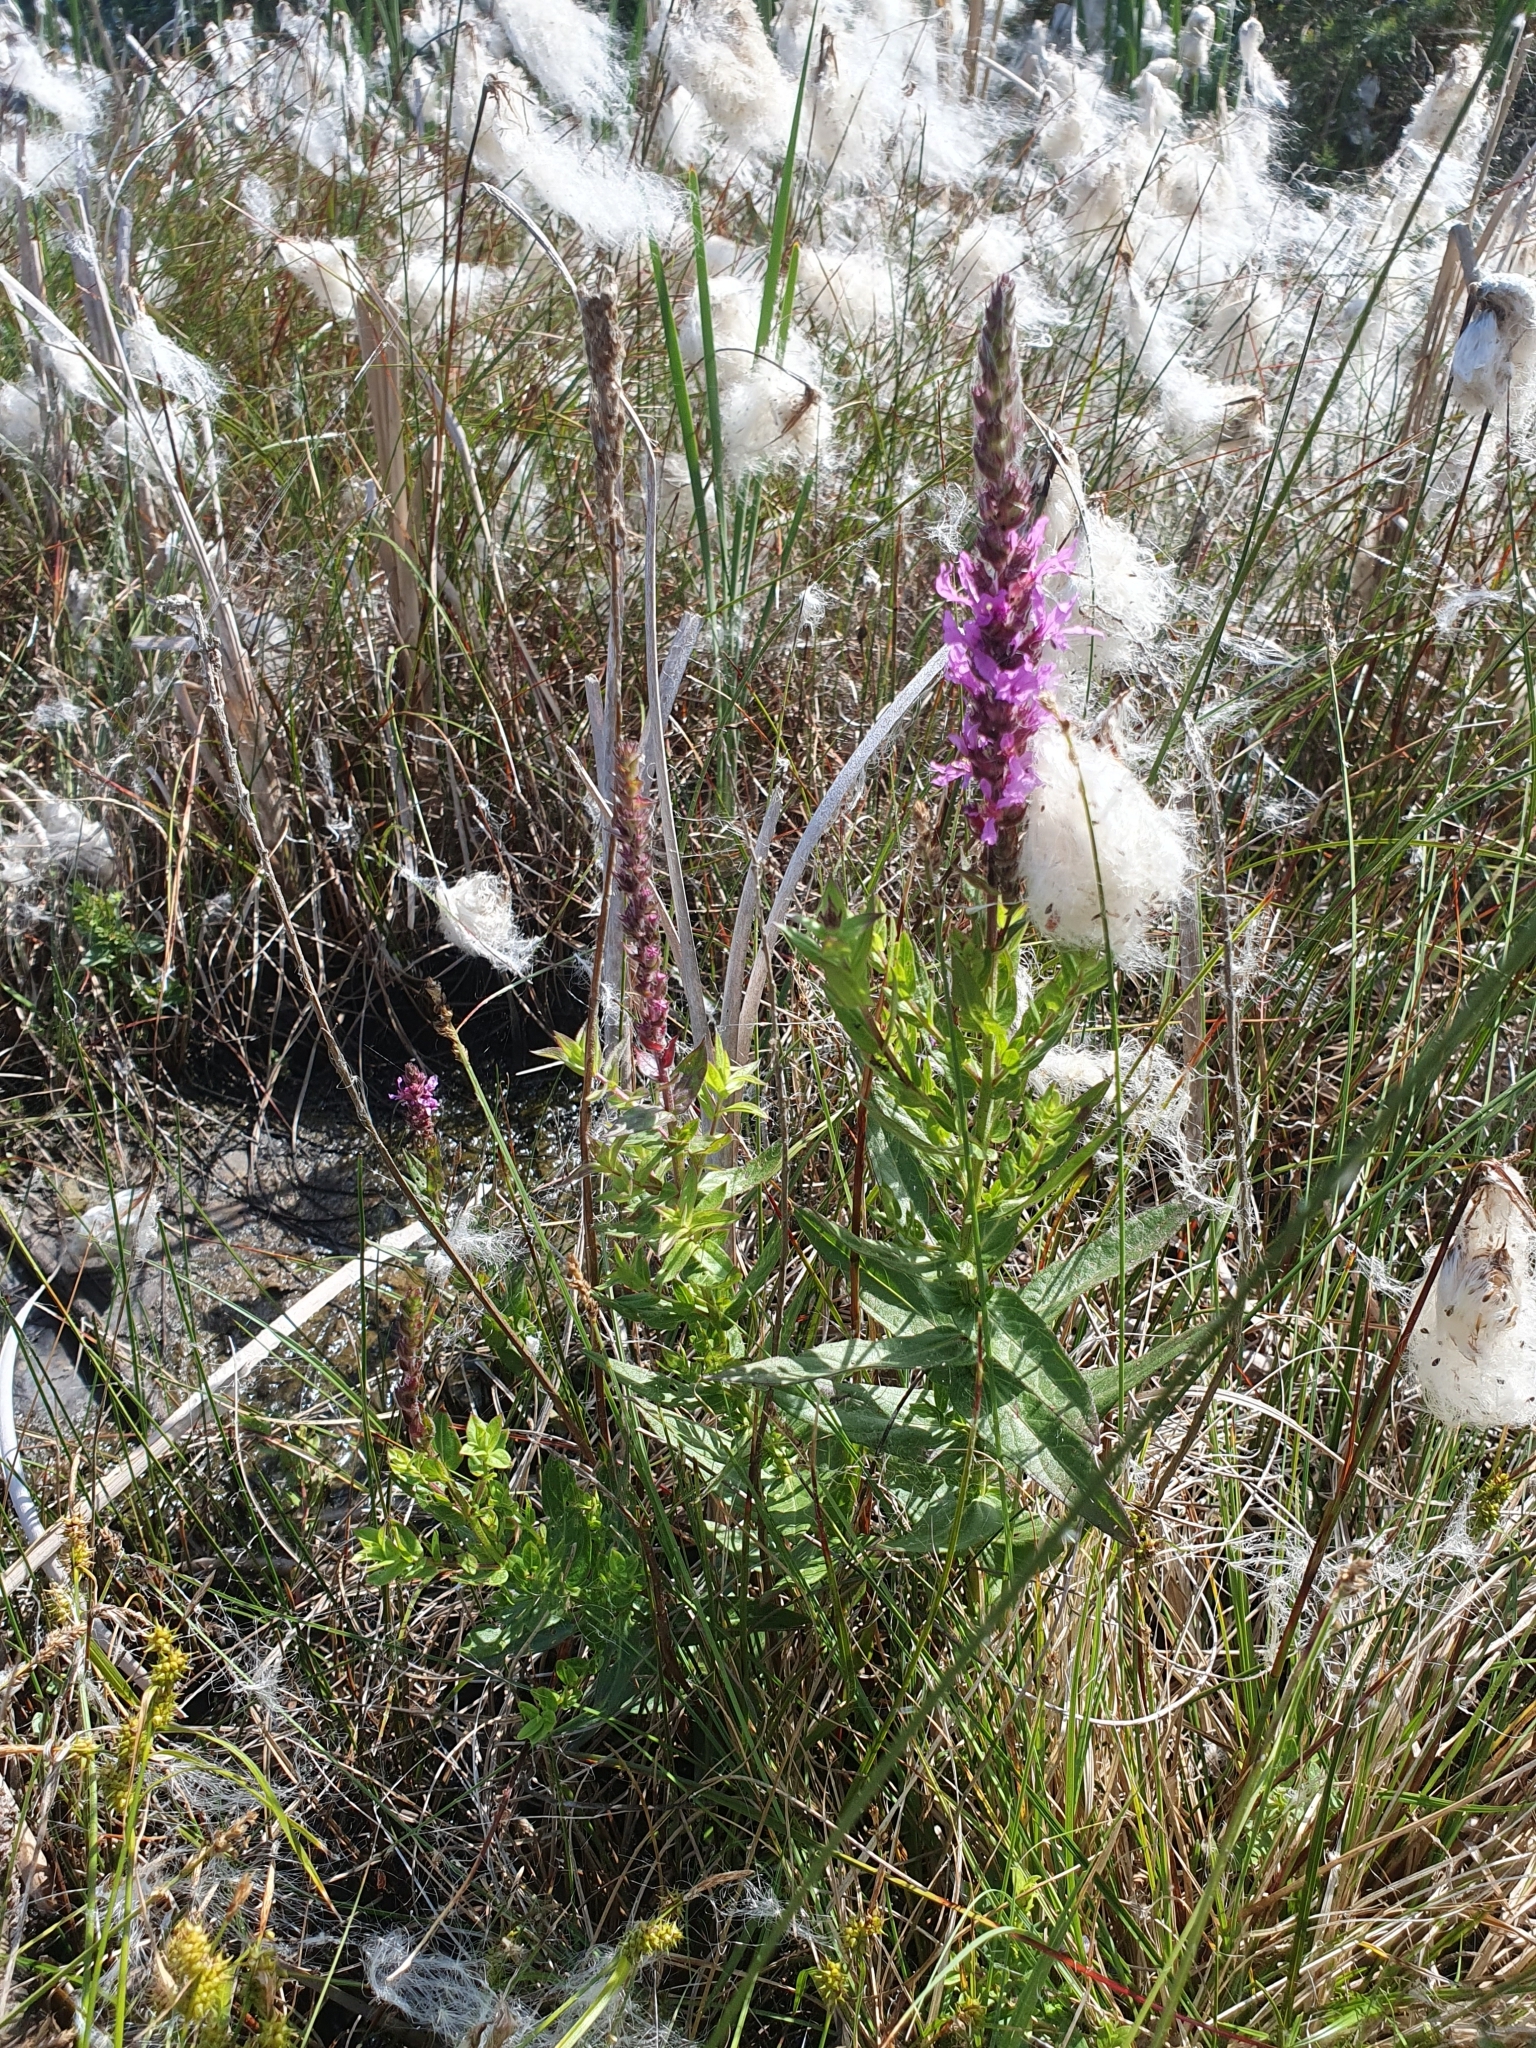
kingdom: Plantae
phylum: Tracheophyta
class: Magnoliopsida
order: Myrtales
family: Lythraceae
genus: Lythrum
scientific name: Lythrum salicaria
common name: Purple loosestrife
